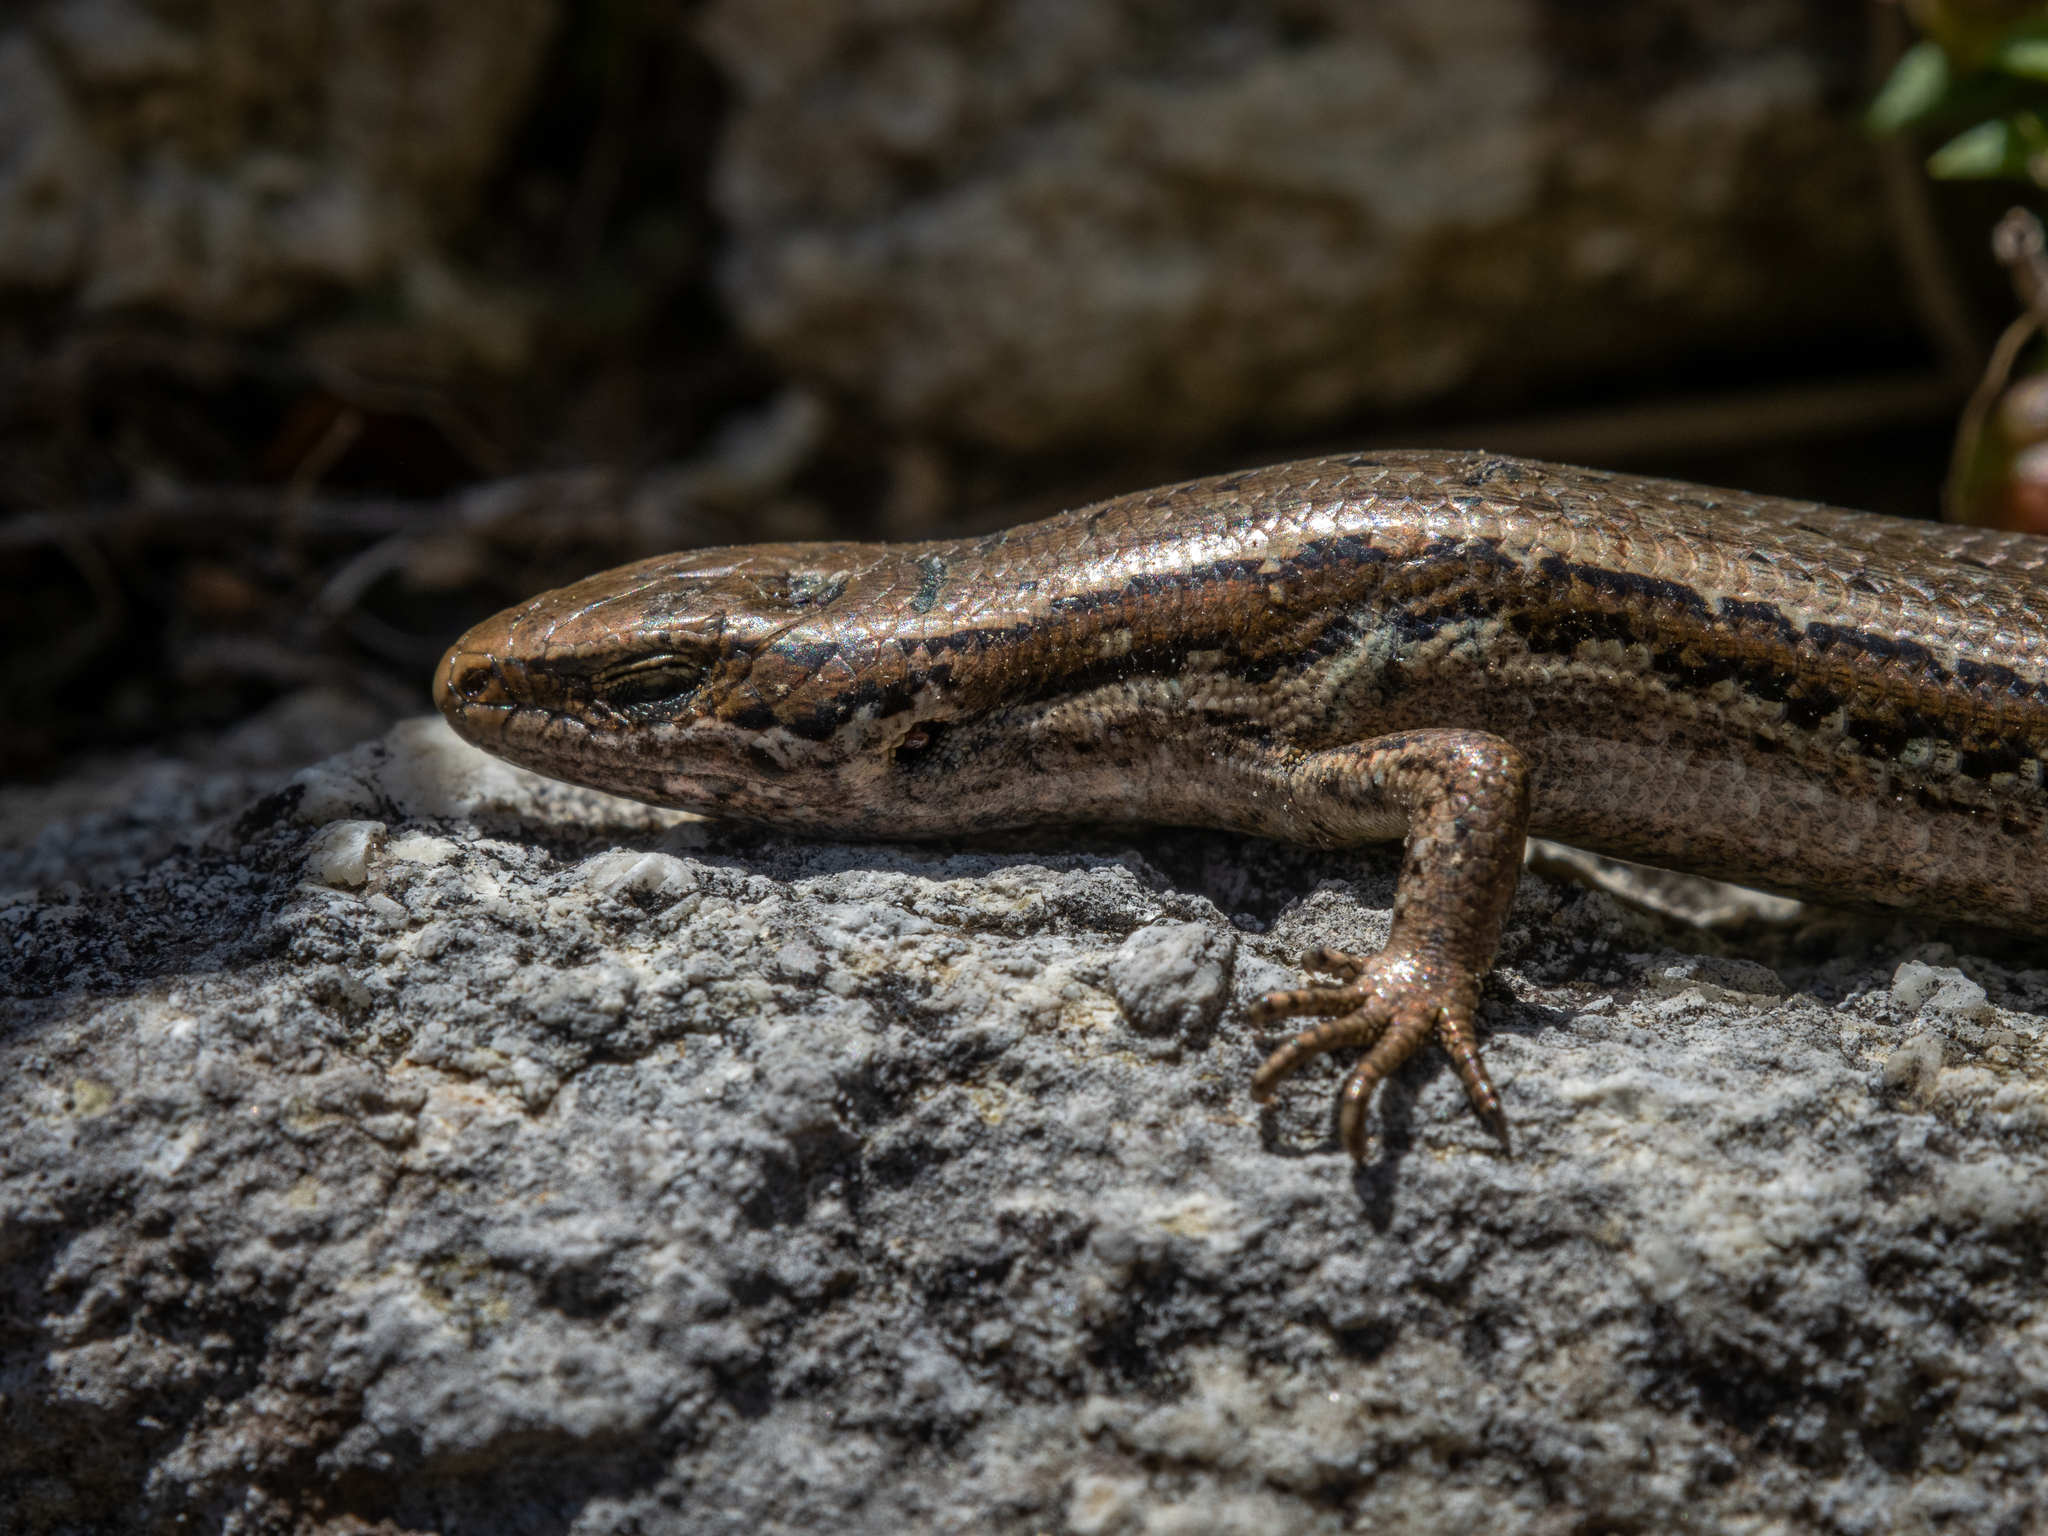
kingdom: Animalia
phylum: Chordata
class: Squamata
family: Scincidae
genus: Oligosoma
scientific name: Oligosoma polychroma
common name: Common new zealand skink
